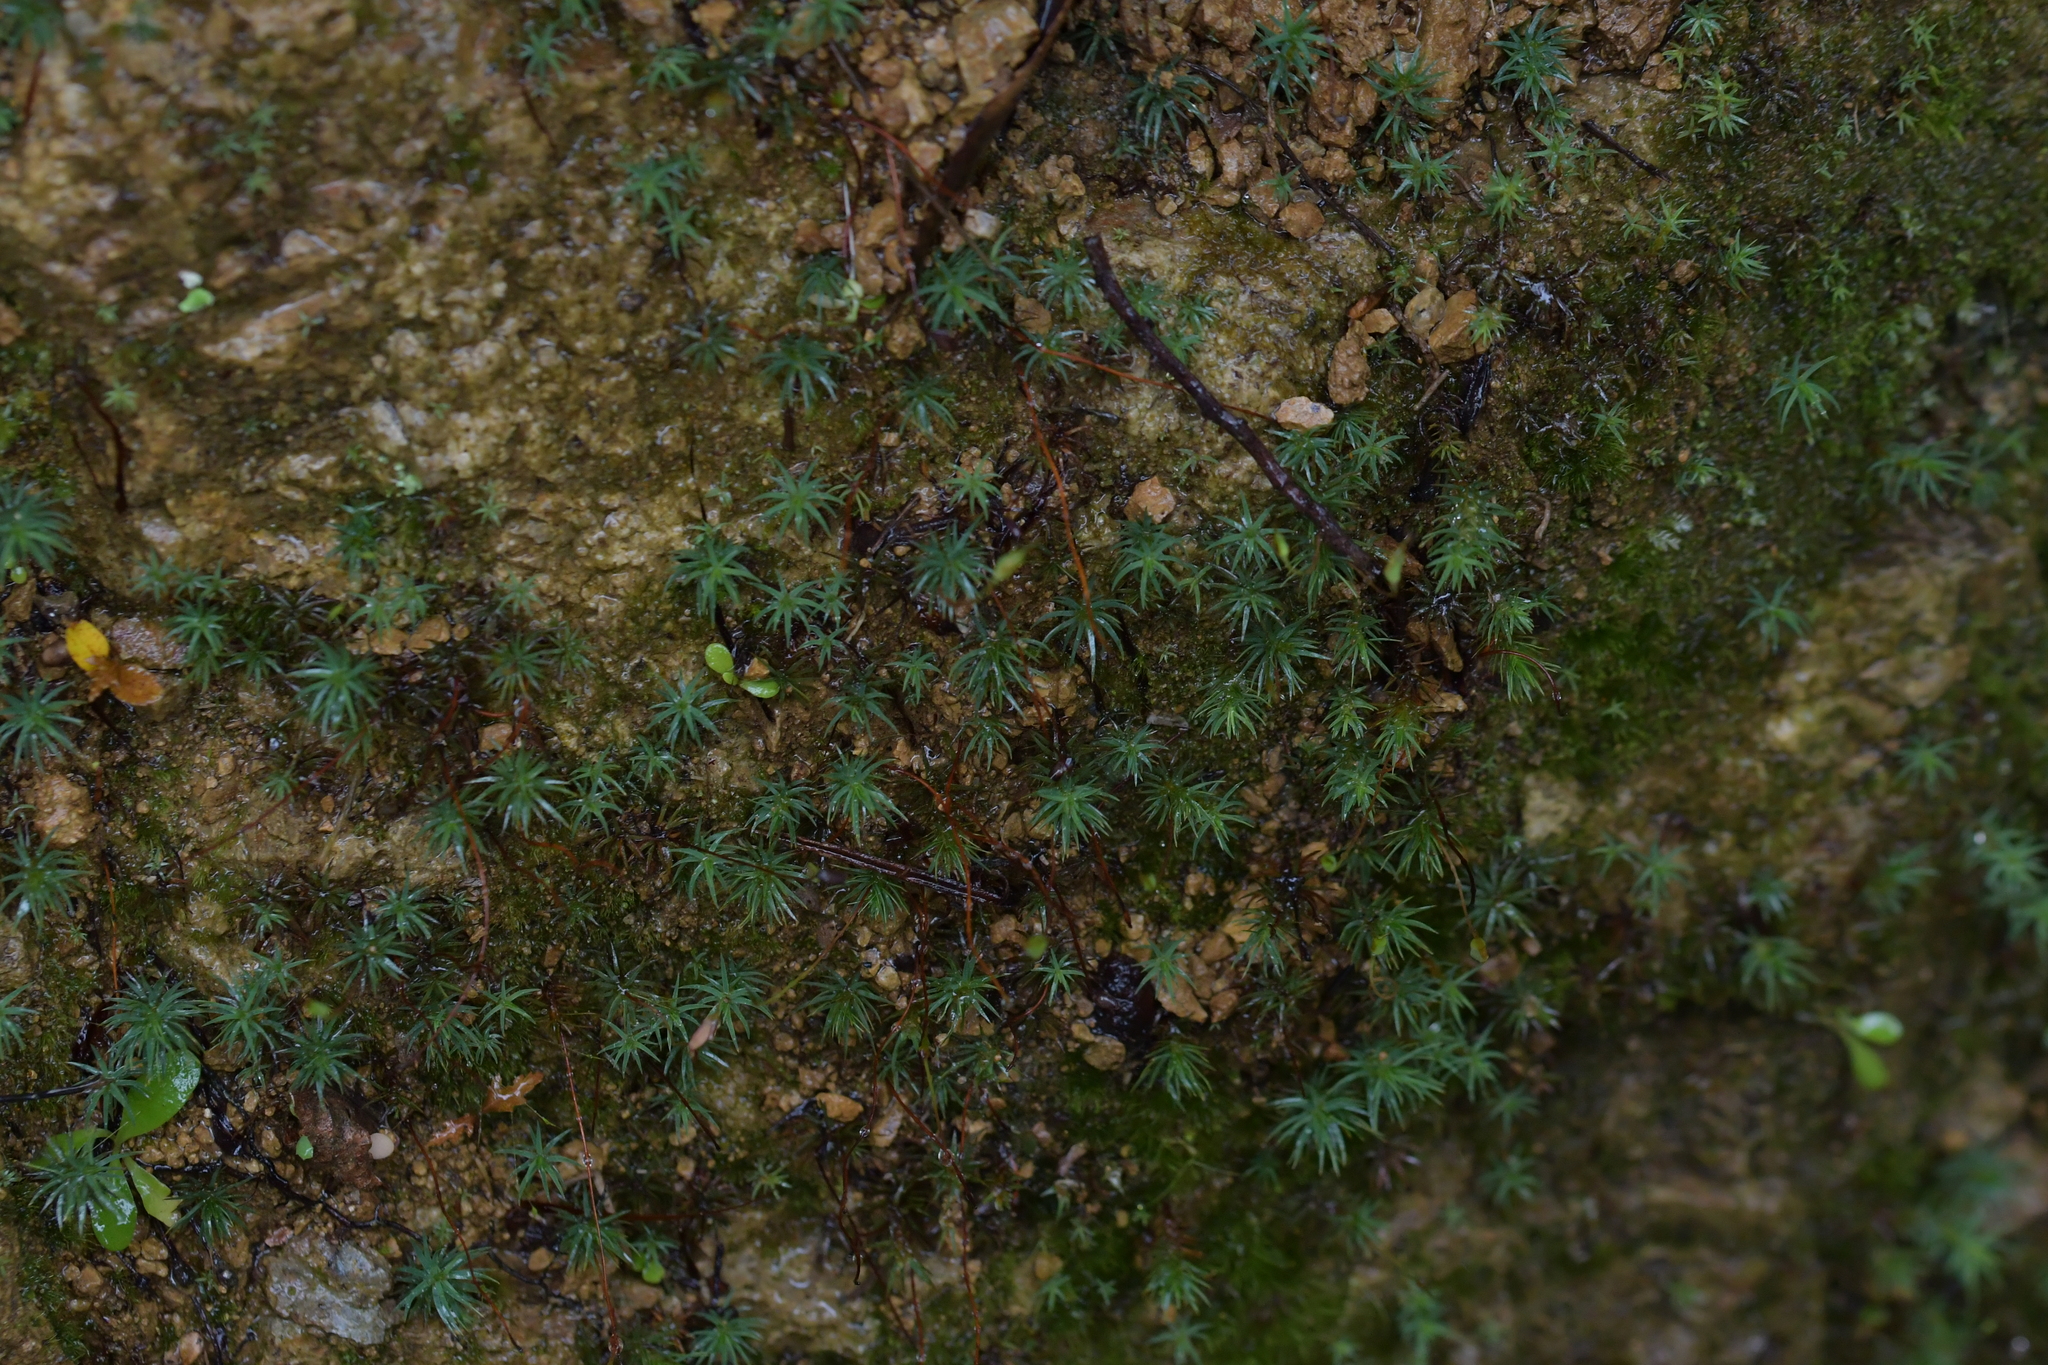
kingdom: Plantae
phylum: Bryophyta
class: Polytrichopsida
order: Polytrichales
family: Polytrichaceae
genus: Polytrichadelphus
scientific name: Polytrichadelphus magellanicus
